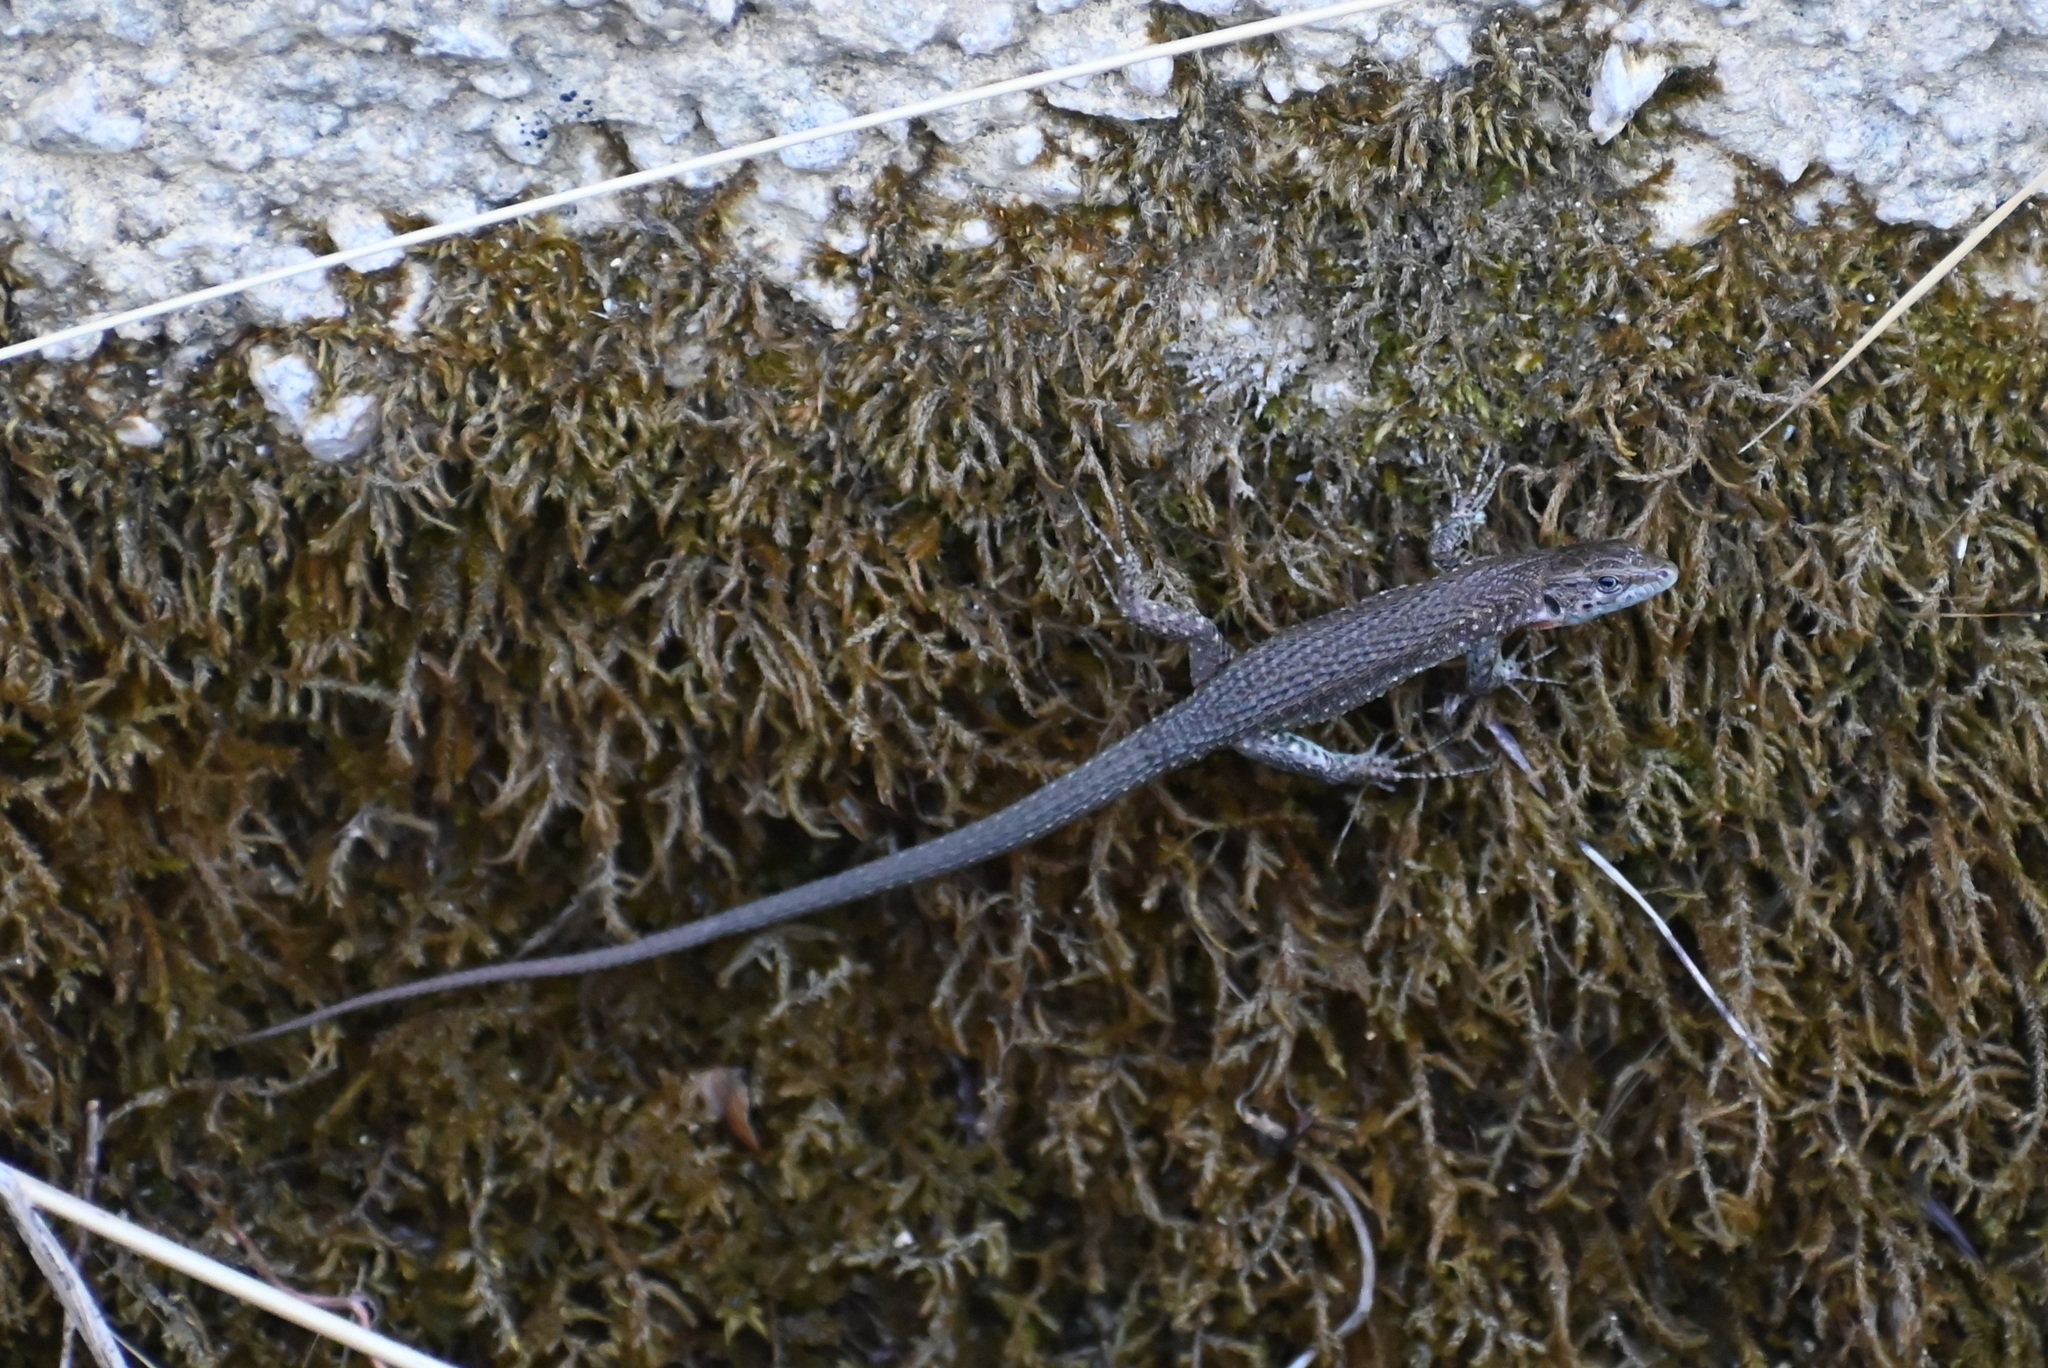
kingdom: Animalia
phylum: Chordata
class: Squamata
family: Lacertidae
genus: Algyroides
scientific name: Algyroides nigropunctatus
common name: Blue-throated keeled lizard
